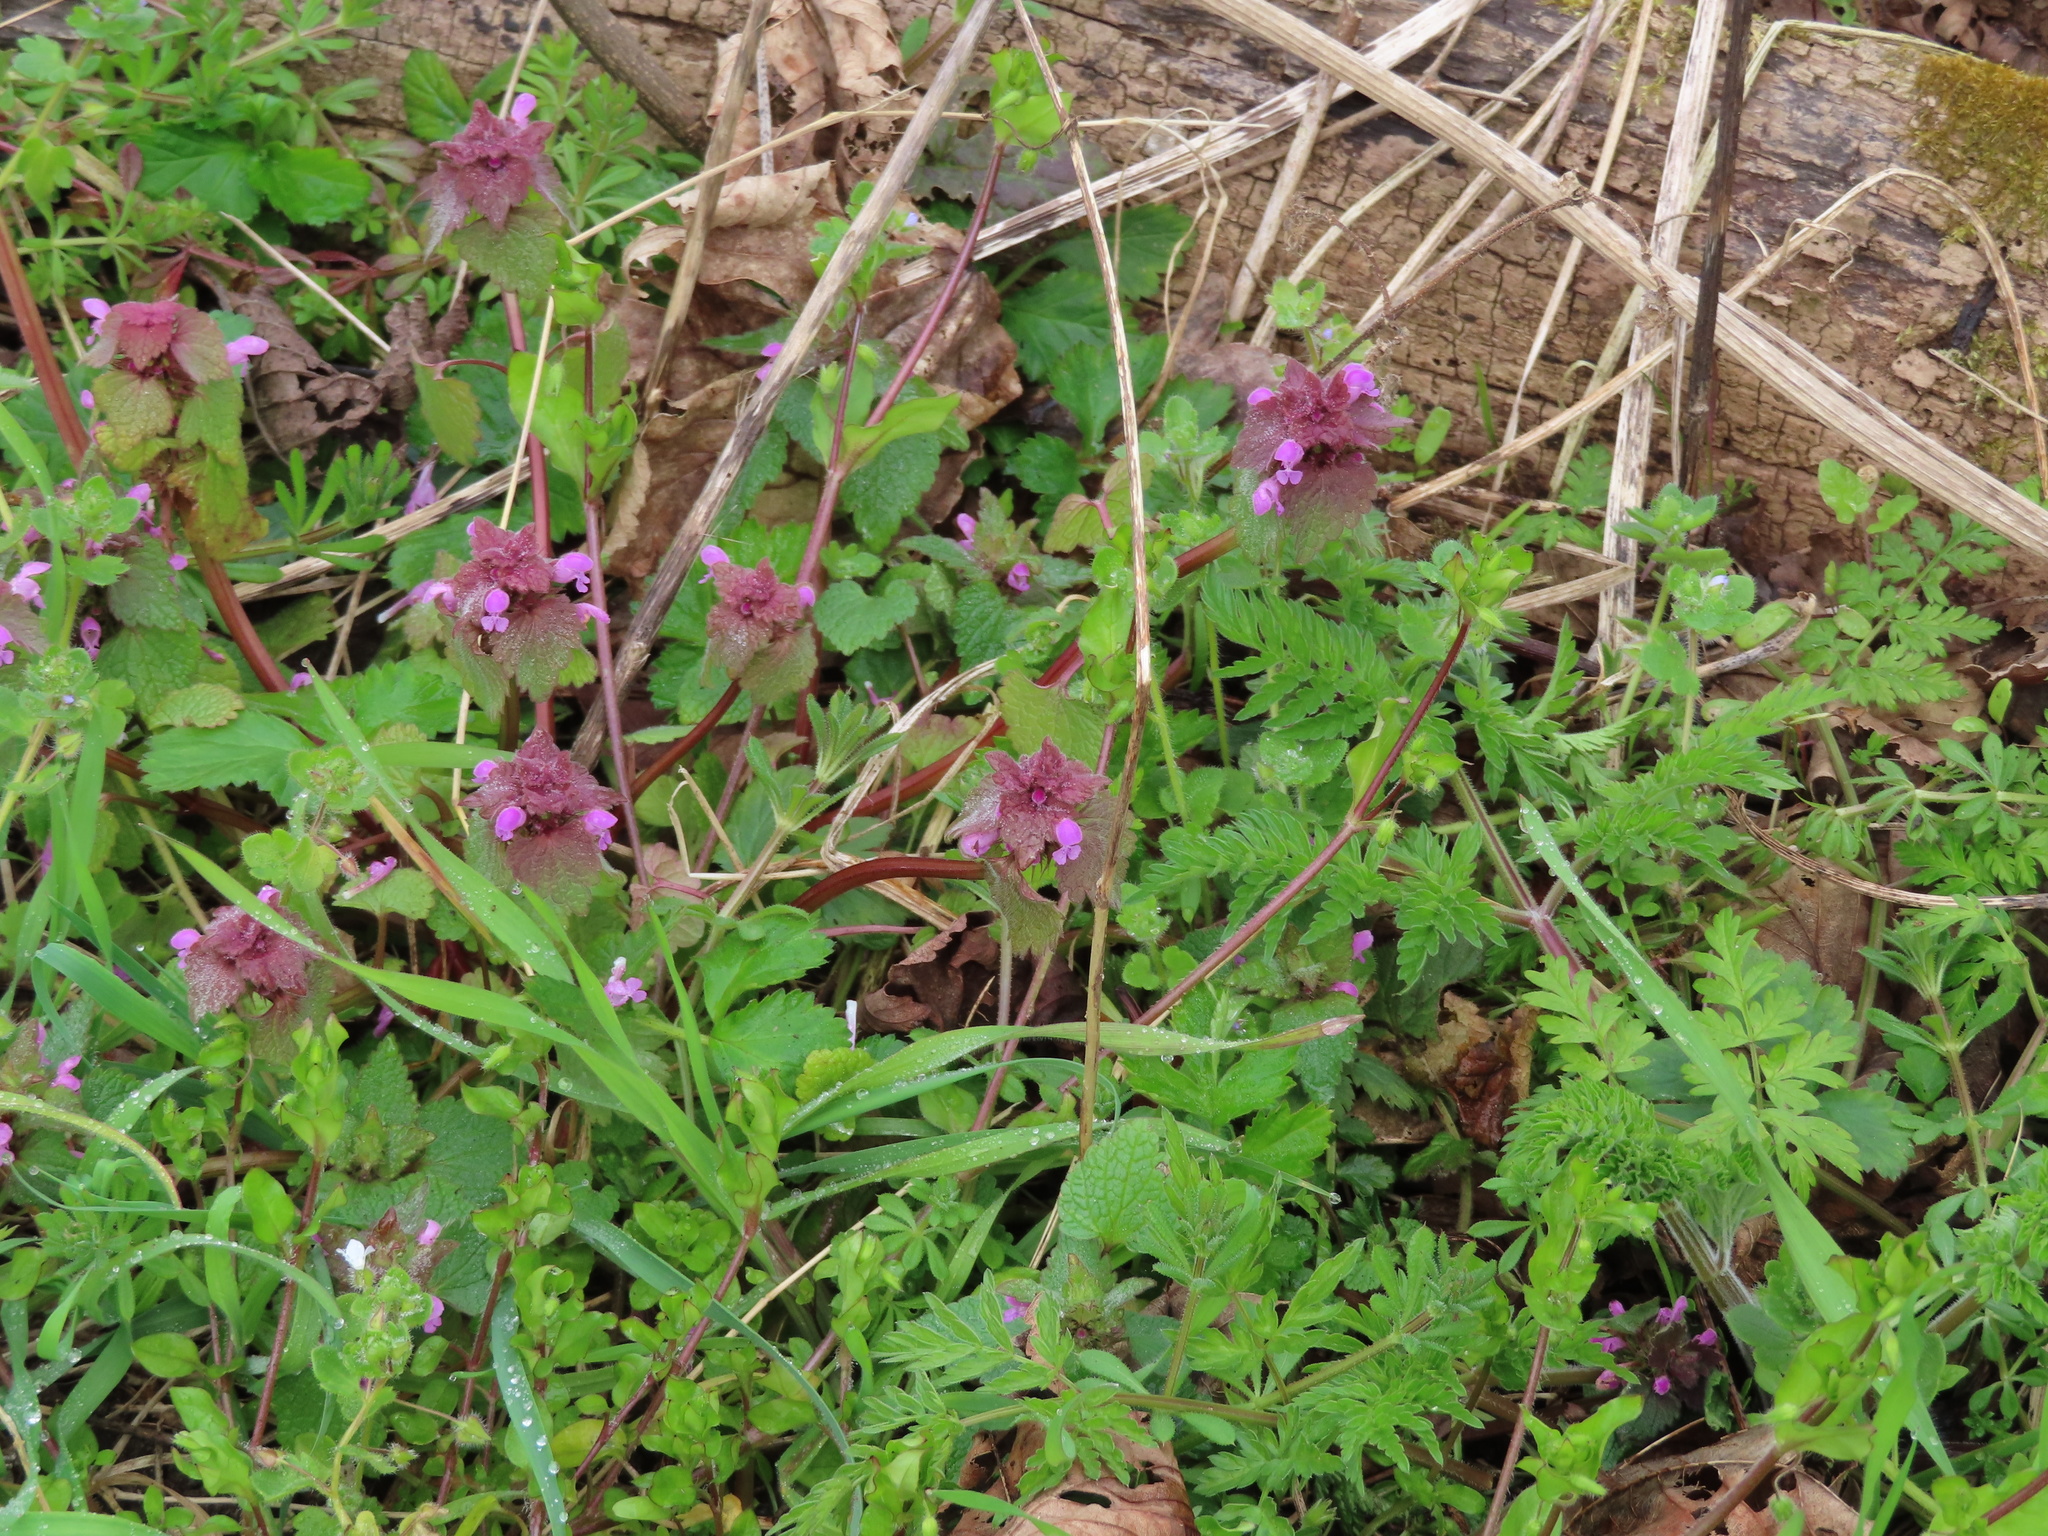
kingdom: Plantae
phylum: Tracheophyta
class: Magnoliopsida
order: Lamiales
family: Lamiaceae
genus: Lamium
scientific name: Lamium purpureum
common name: Red dead-nettle
